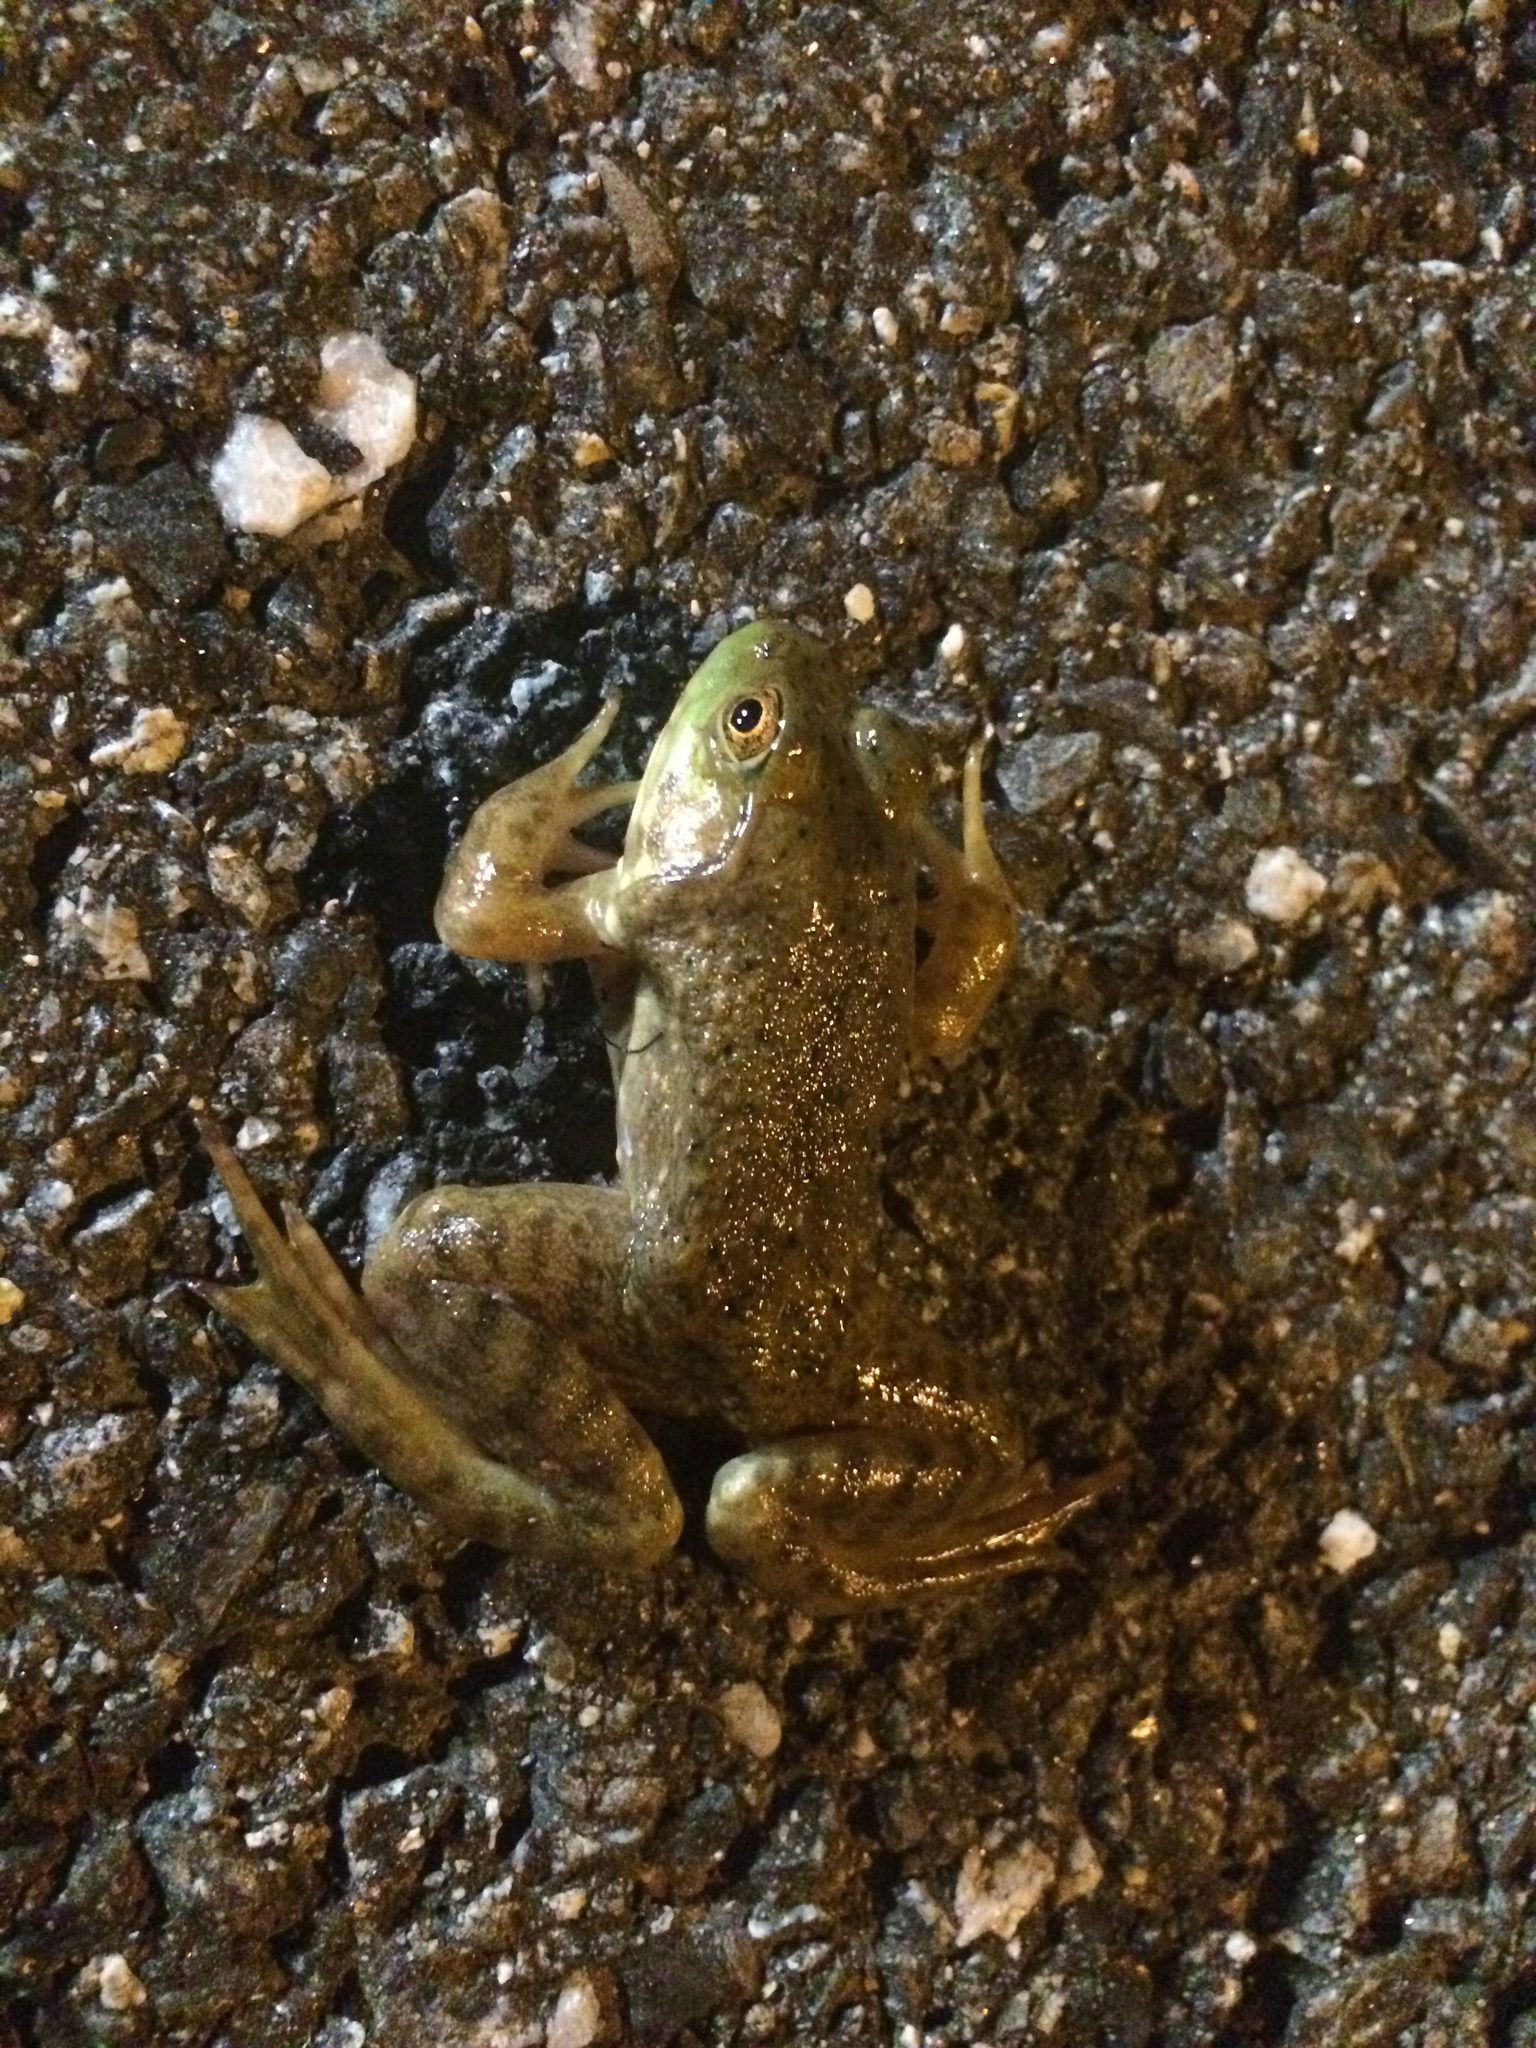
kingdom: Animalia
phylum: Chordata
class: Amphibia
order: Anura
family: Ranidae
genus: Lithobates
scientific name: Lithobates catesbeianus
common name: American bullfrog
